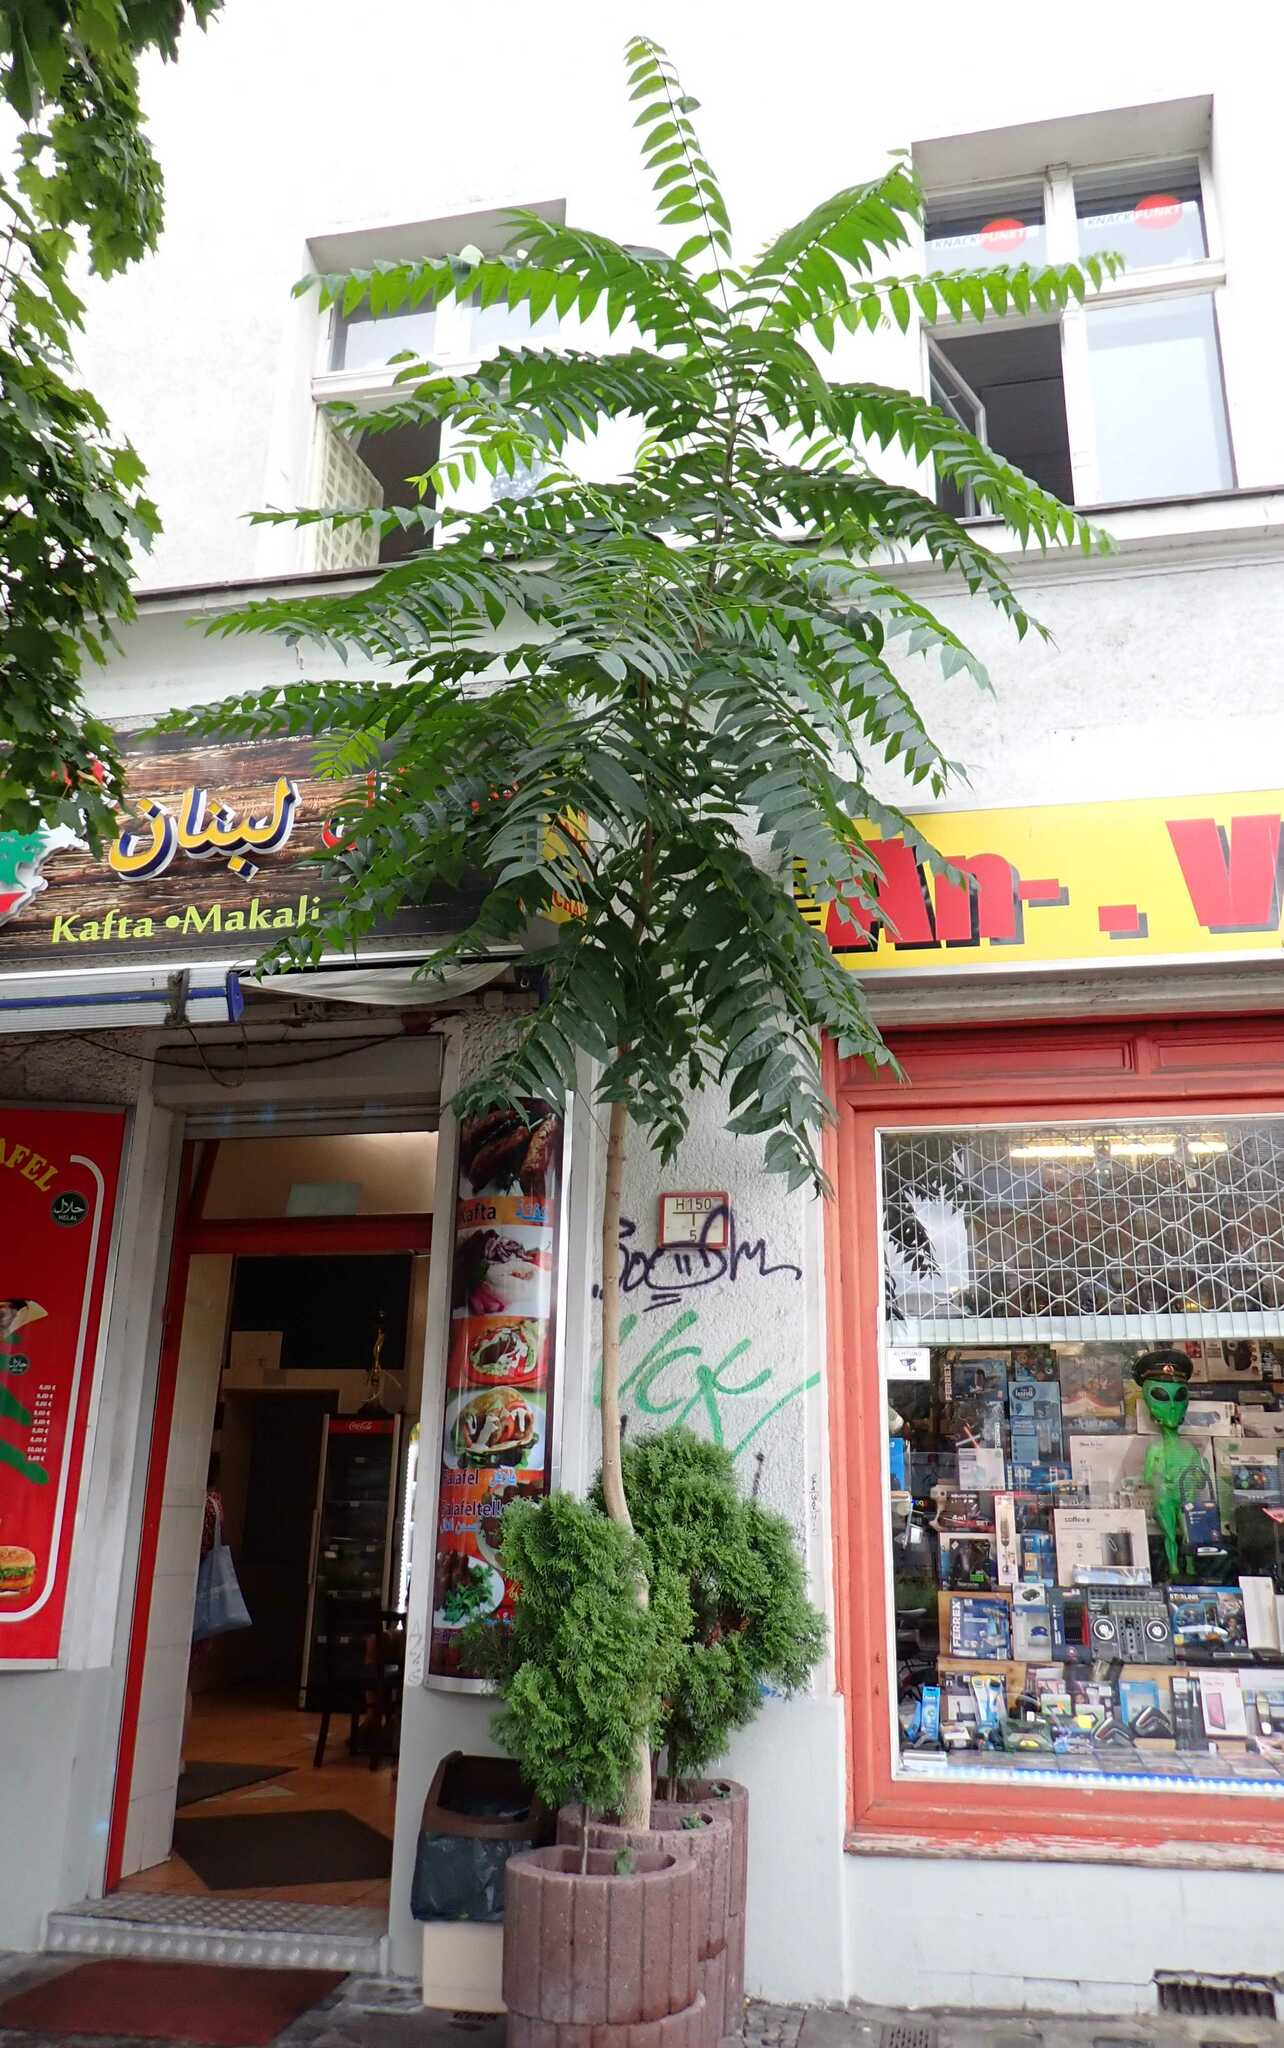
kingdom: Plantae
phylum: Tracheophyta
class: Magnoliopsida
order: Sapindales
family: Simaroubaceae
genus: Ailanthus
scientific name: Ailanthus altissima
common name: Tree-of-heaven
